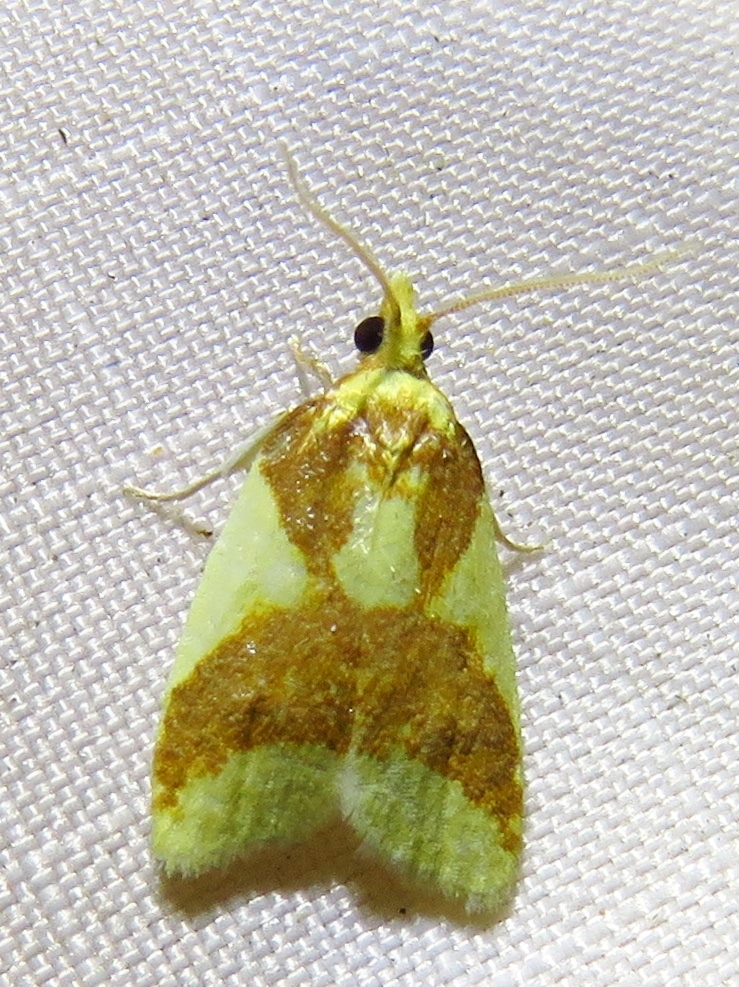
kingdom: Animalia
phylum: Arthropoda
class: Insecta
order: Lepidoptera
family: Tortricidae
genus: Sparganothis
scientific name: Sparganothis pulcherrimana
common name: Beautiful sparganothis
